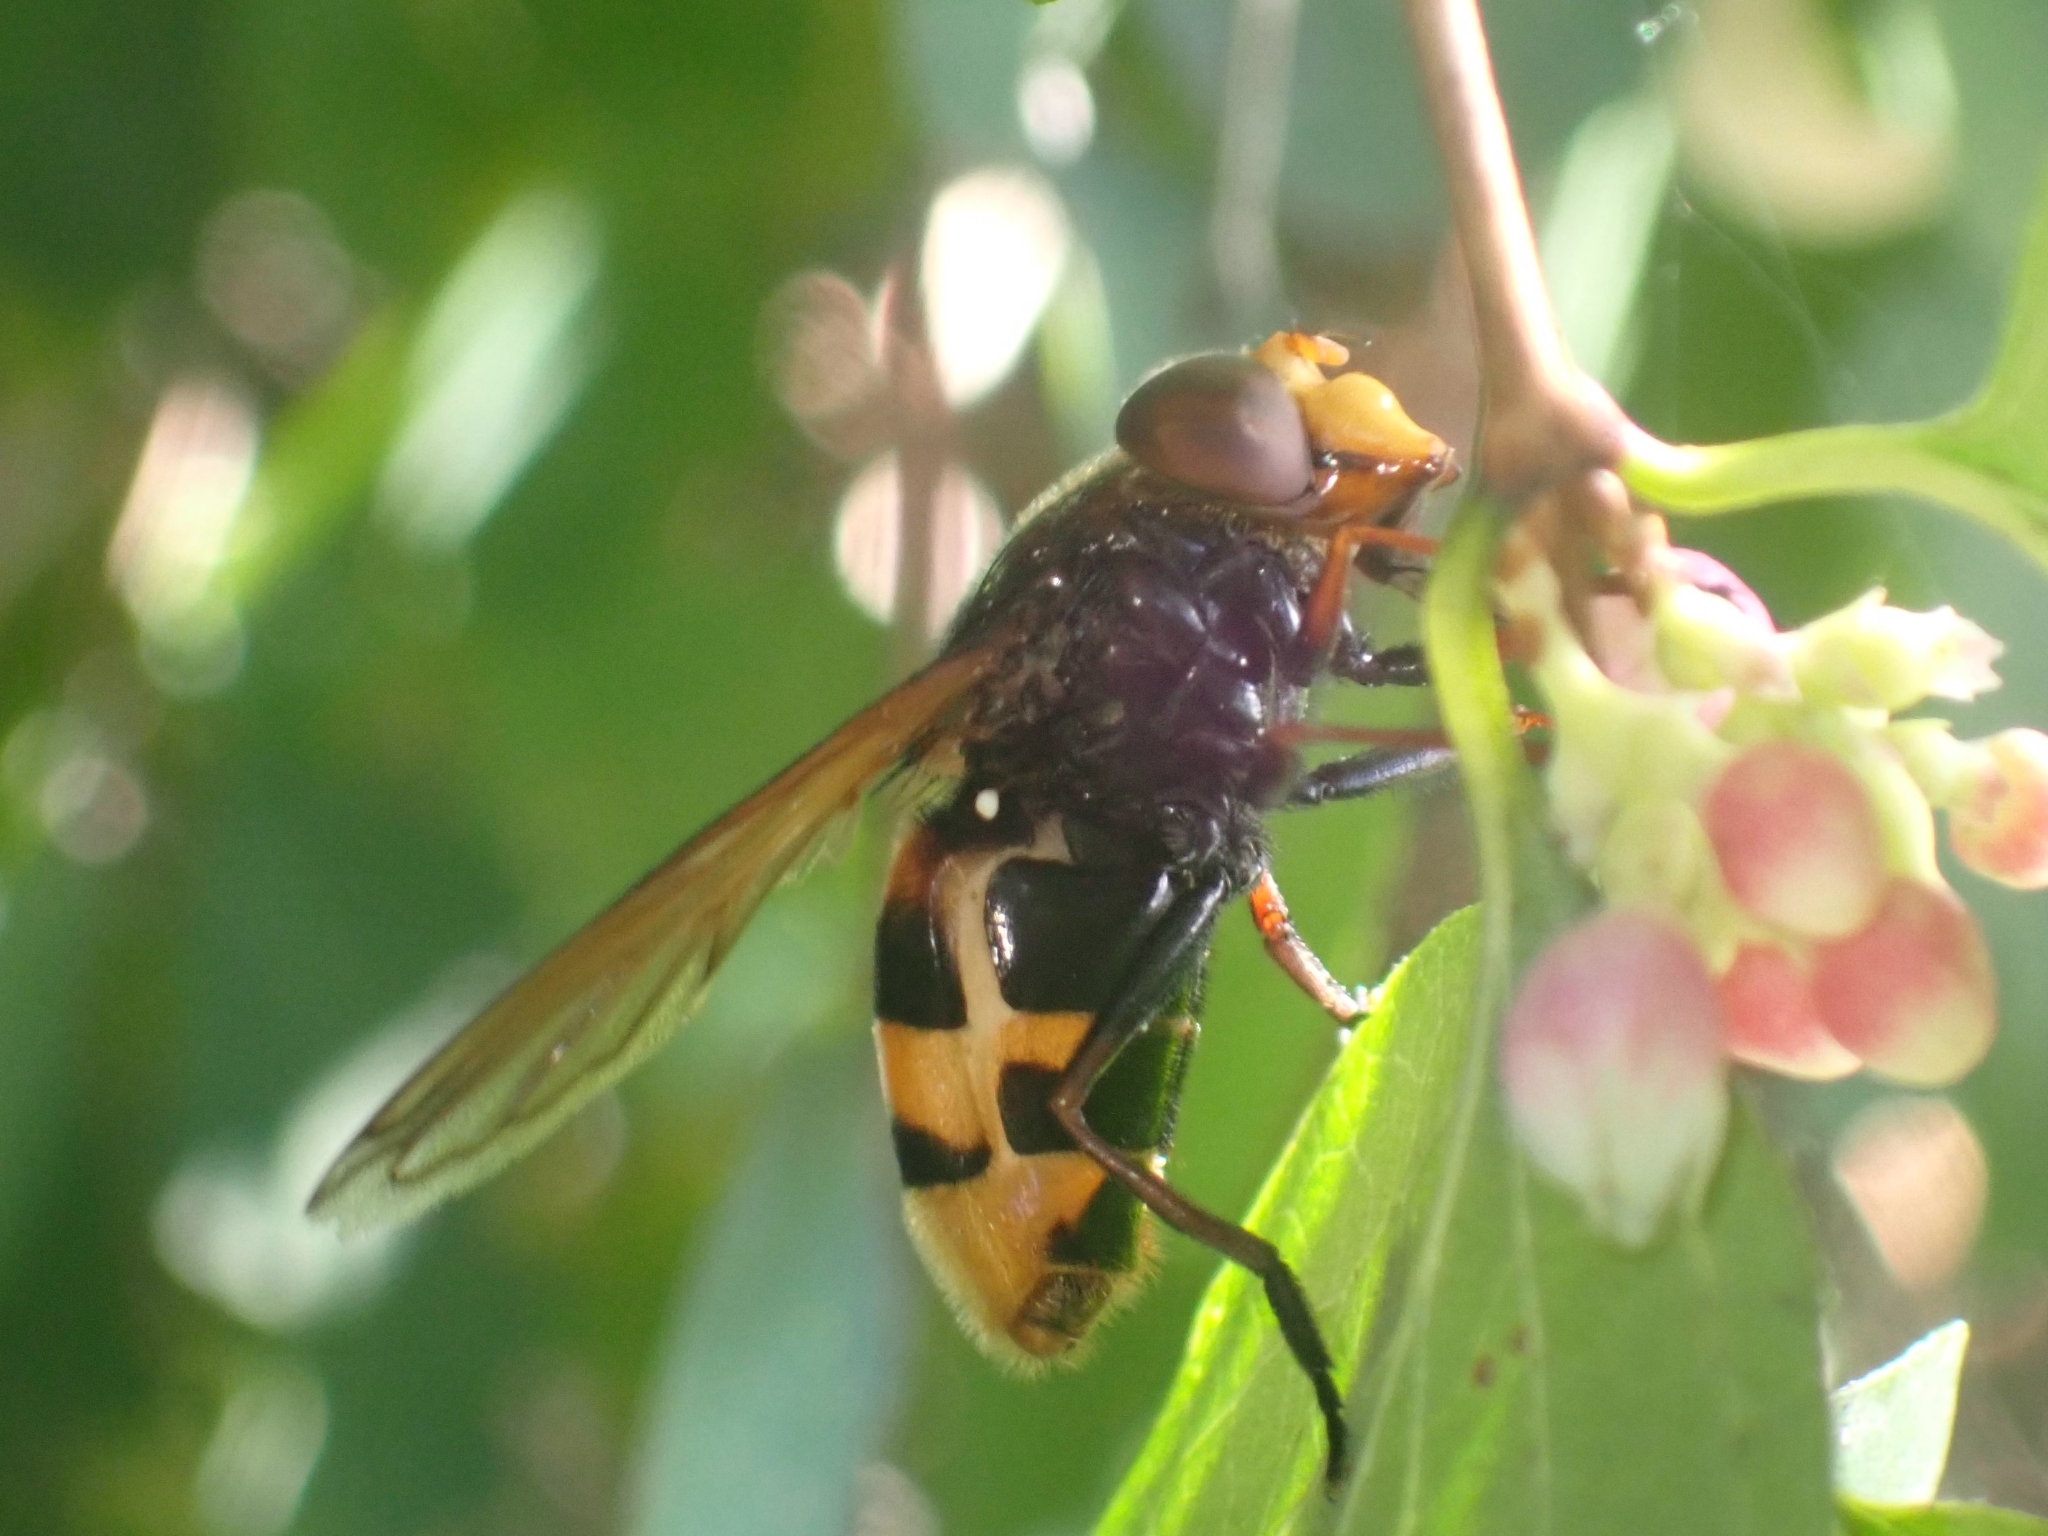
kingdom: Animalia
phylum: Arthropoda
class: Insecta
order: Diptera
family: Syrphidae
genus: Volucella
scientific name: Volucella zonaria
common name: Hornet hoverfly
